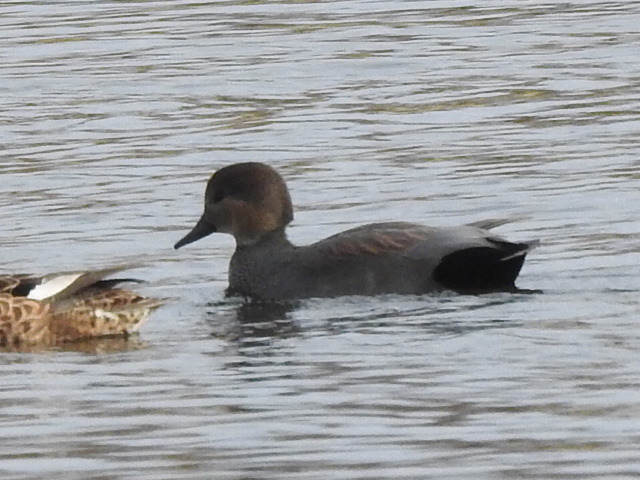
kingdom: Animalia
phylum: Chordata
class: Aves
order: Anseriformes
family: Anatidae
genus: Mareca
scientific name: Mareca strepera
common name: Gadwall
